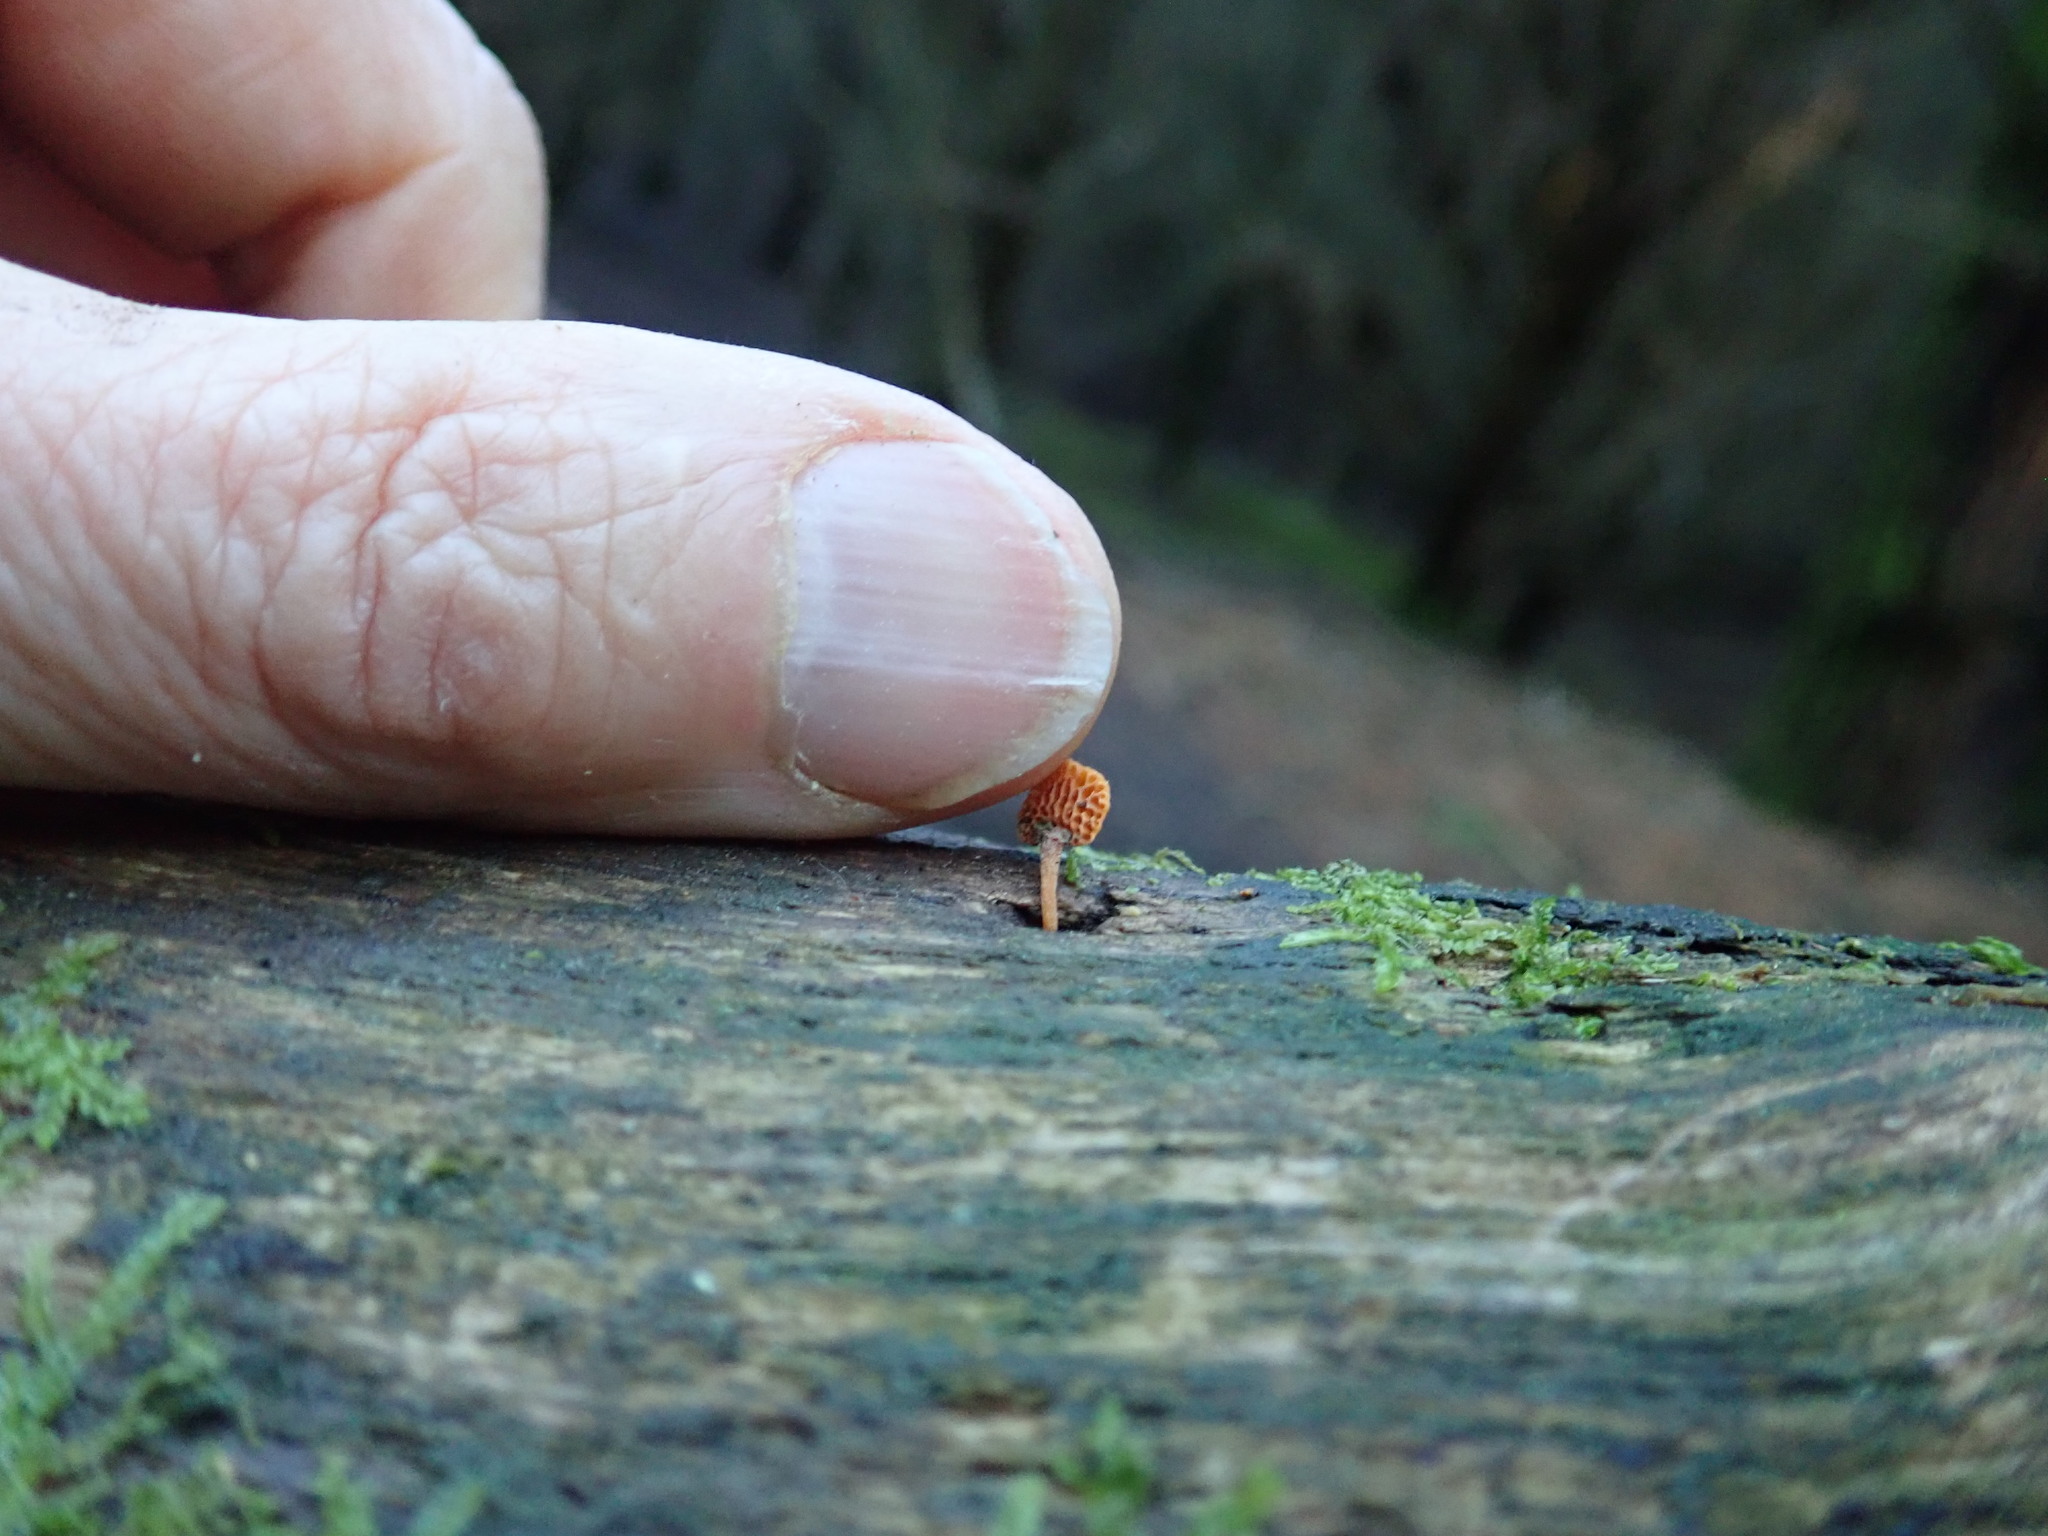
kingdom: Fungi
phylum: Basidiomycota
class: Agaricomycetes
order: Agaricales
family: Mycenaceae
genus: Favolaschia
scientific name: Favolaschia claudopus
